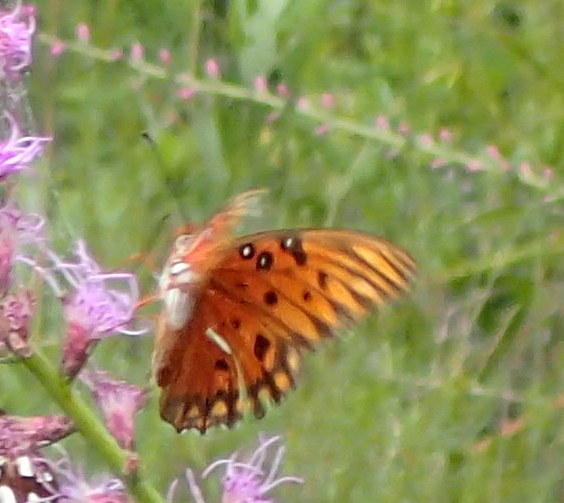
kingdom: Animalia
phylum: Arthropoda
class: Insecta
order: Lepidoptera
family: Nymphalidae
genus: Dione
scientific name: Dione vanillae
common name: Gulf fritillary
